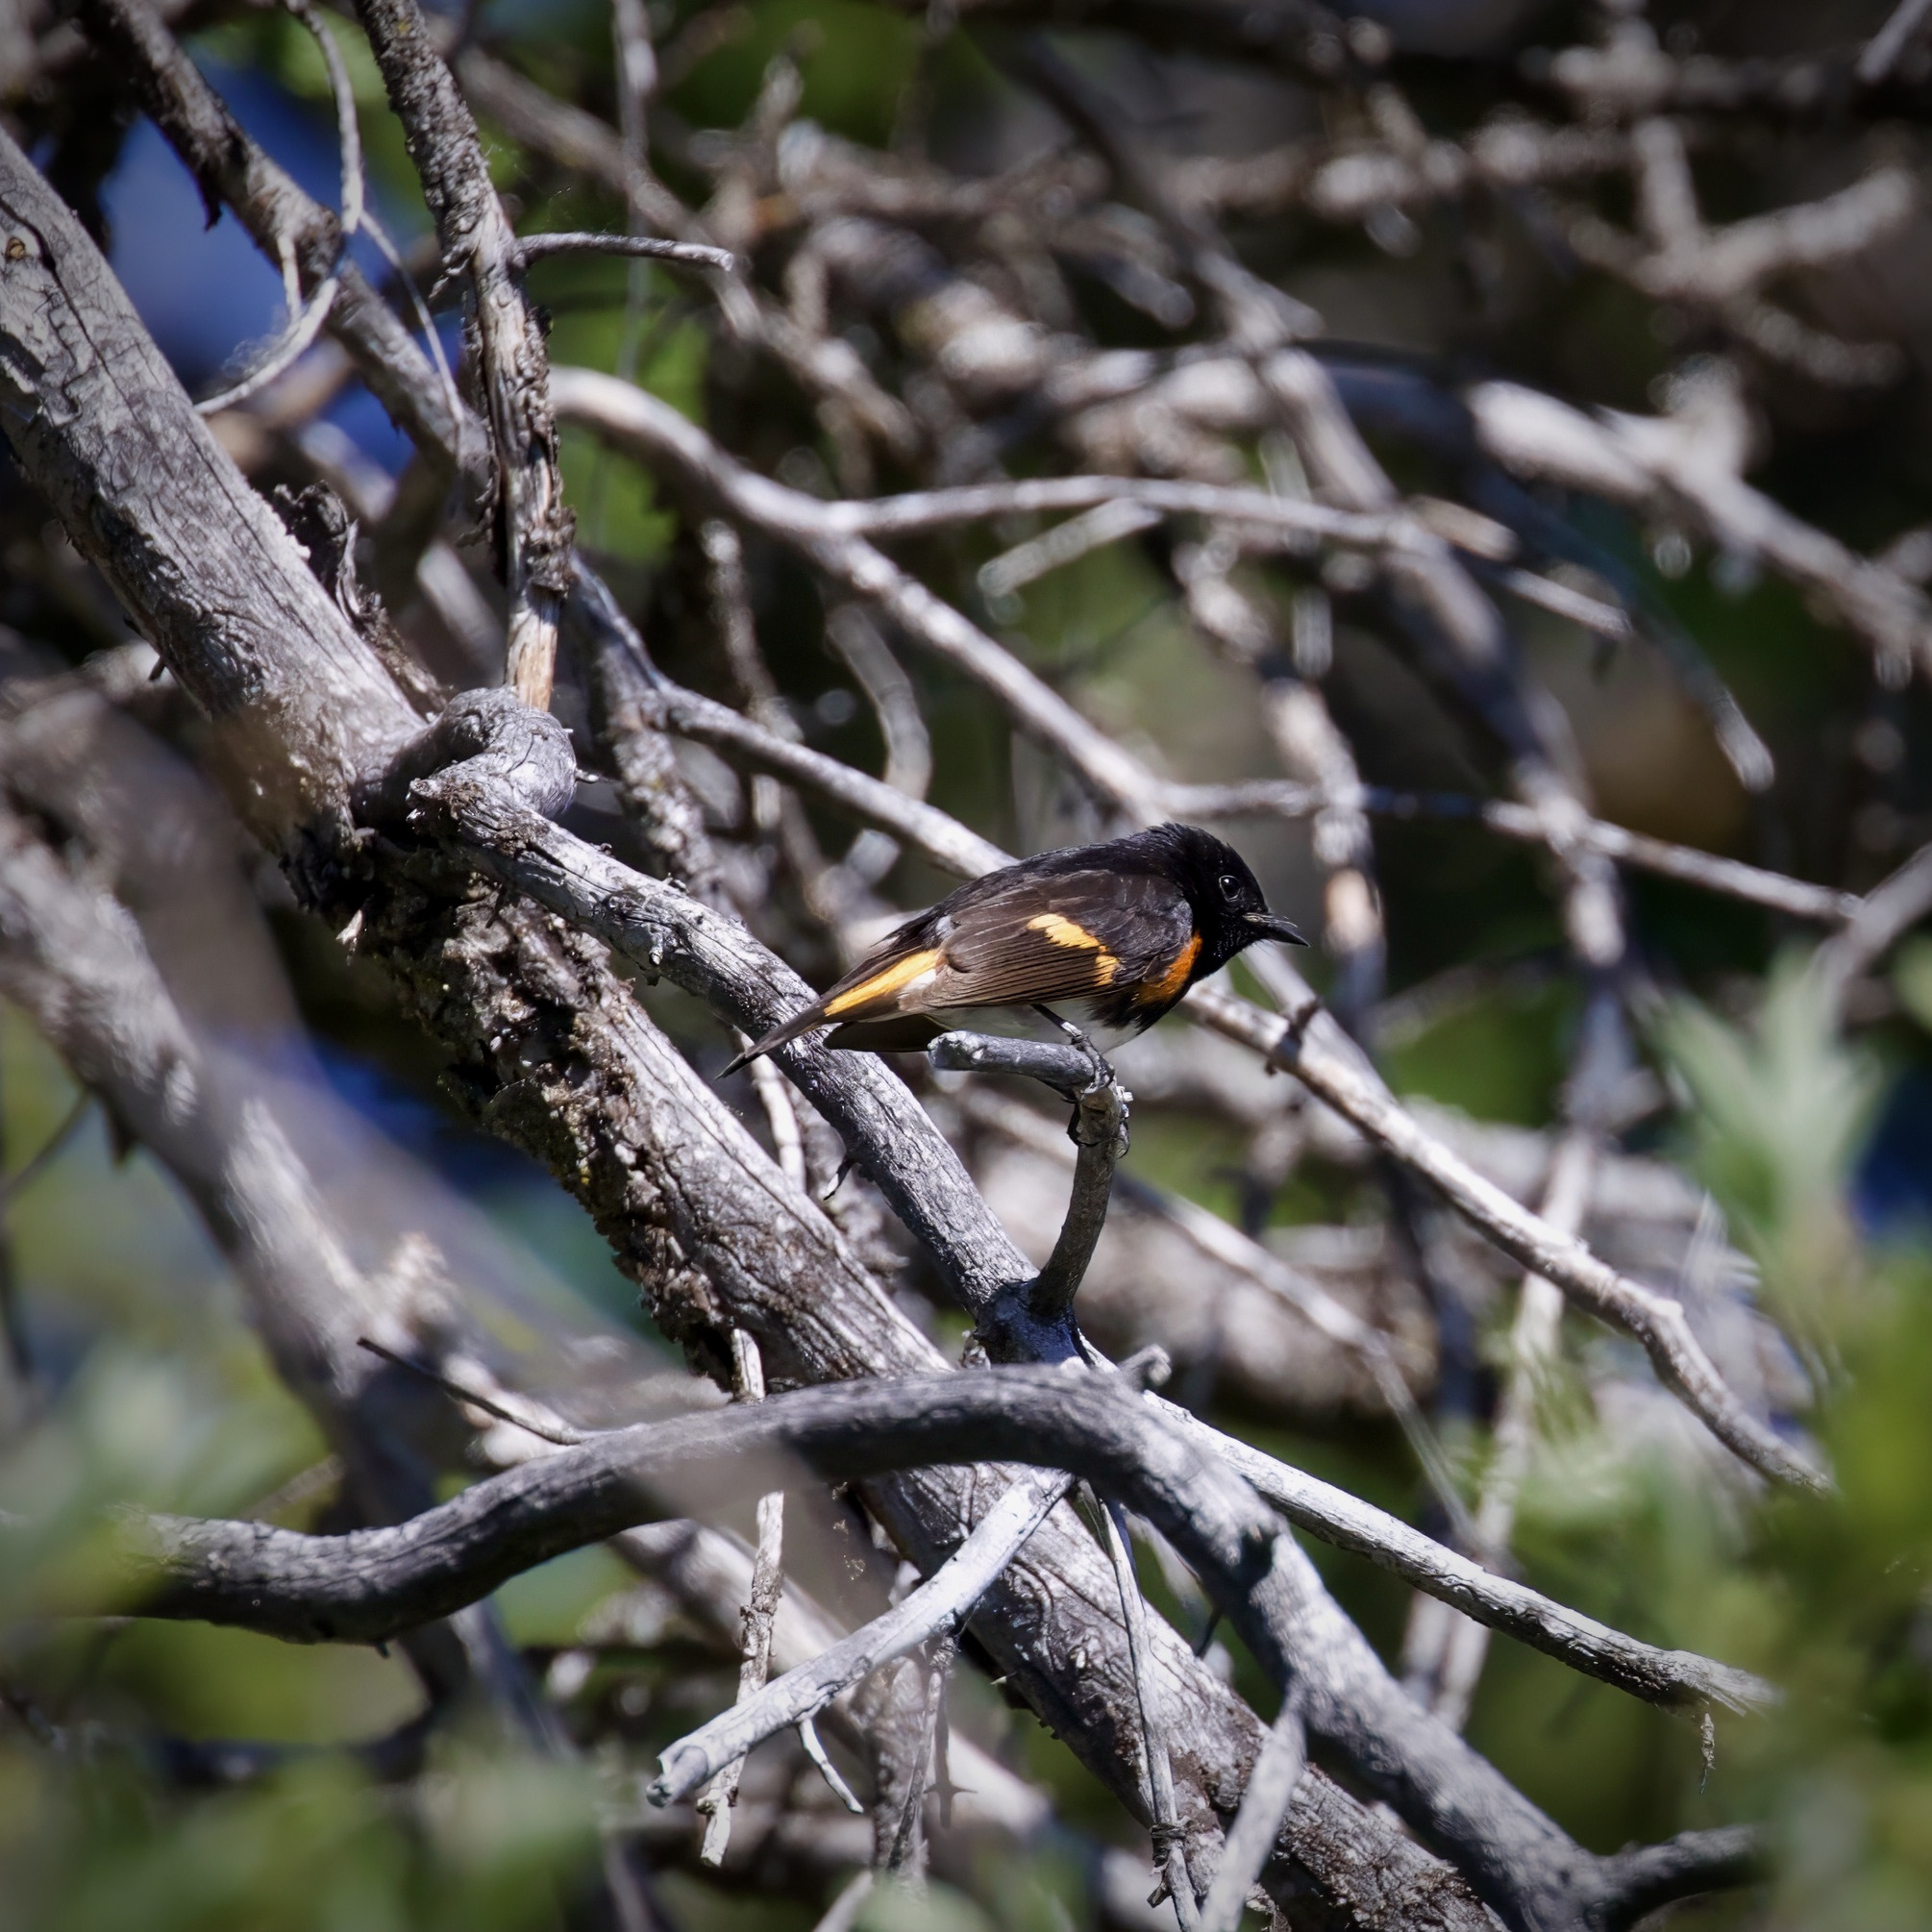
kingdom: Animalia
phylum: Chordata
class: Aves
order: Passeriformes
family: Parulidae
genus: Setophaga
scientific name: Setophaga ruticilla
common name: American redstart
